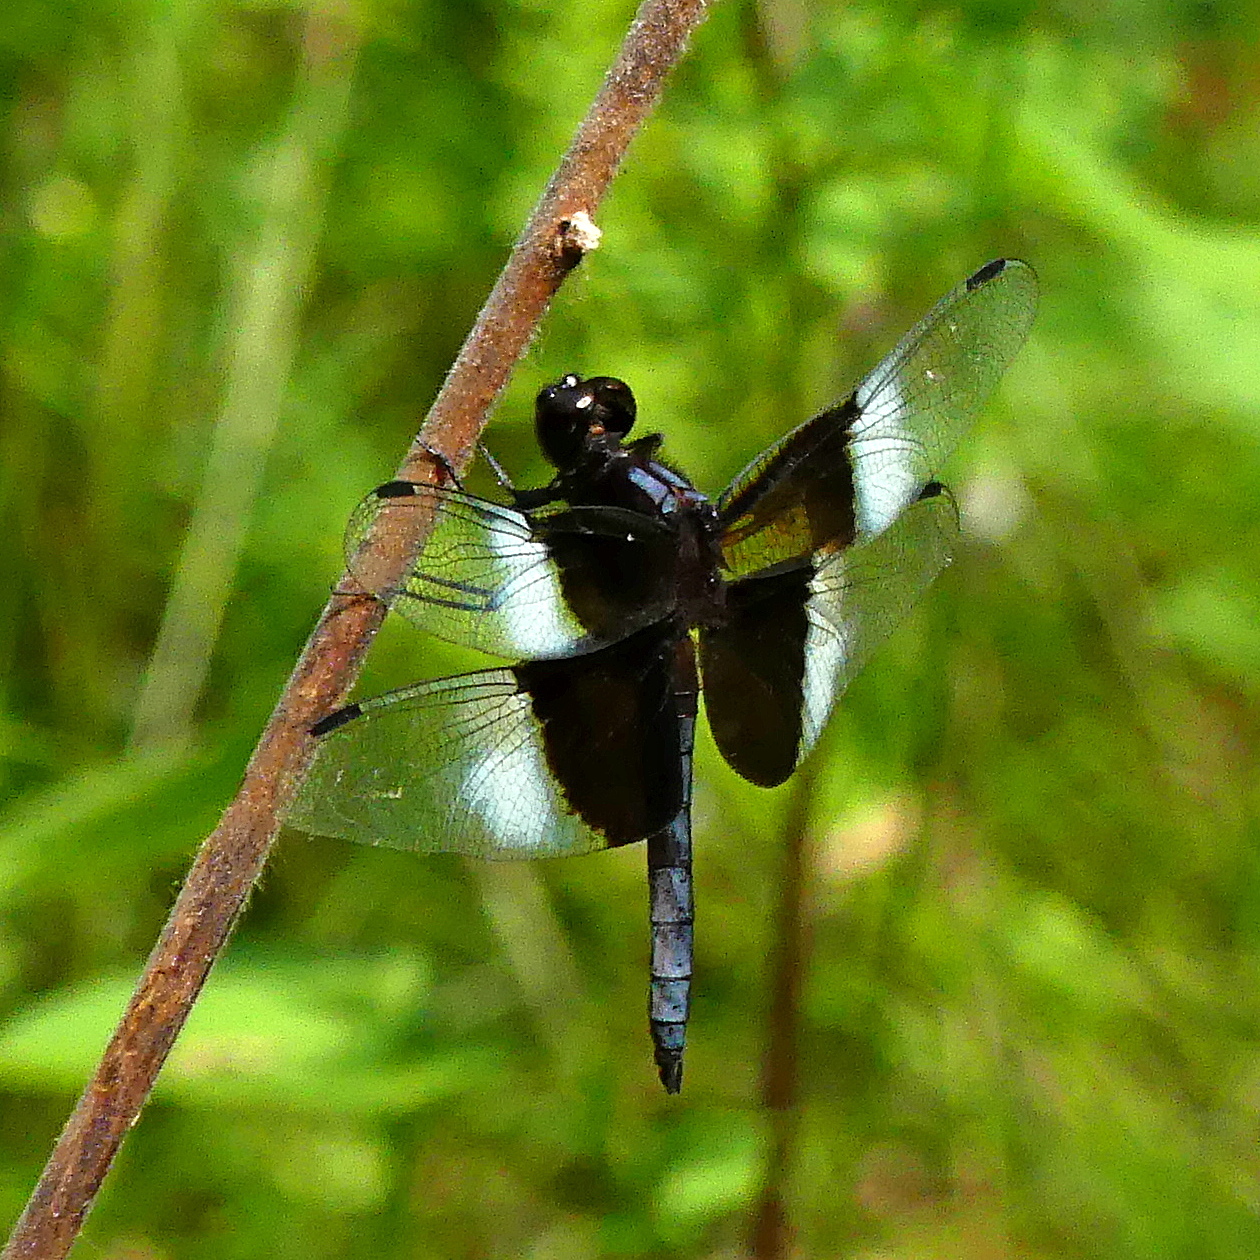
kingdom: Animalia
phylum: Arthropoda
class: Insecta
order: Odonata
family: Libellulidae
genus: Libellula
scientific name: Libellula luctuosa
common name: Widow skimmer
